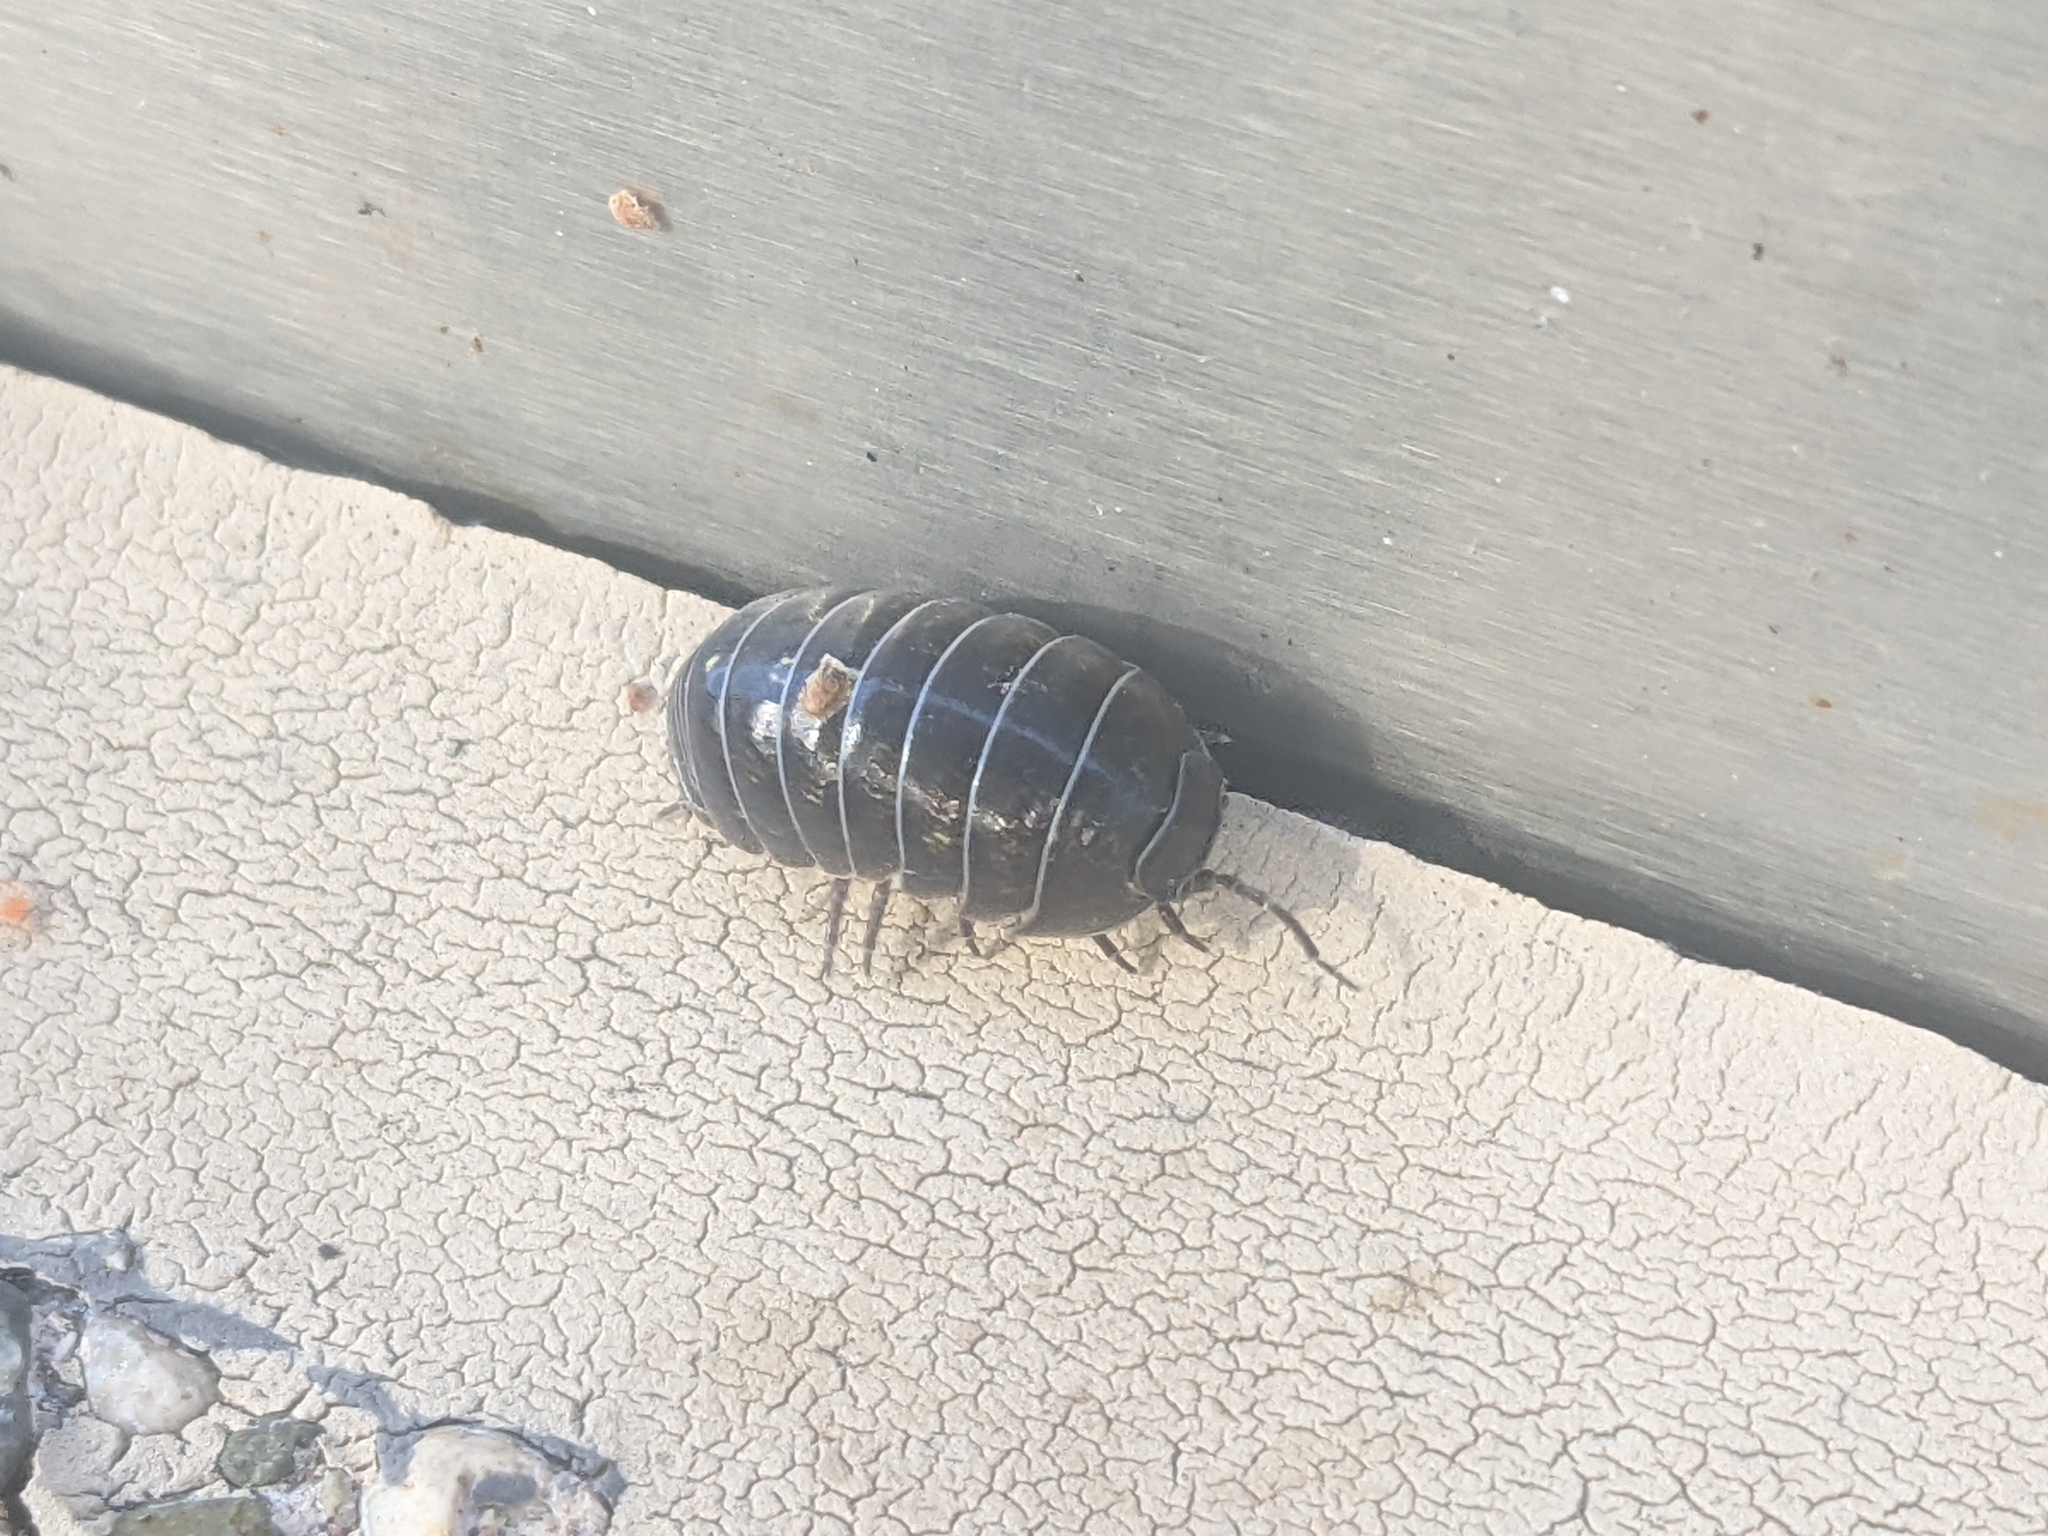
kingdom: Animalia
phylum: Arthropoda
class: Malacostraca
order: Isopoda
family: Armadillidiidae
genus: Armadillidium
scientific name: Armadillidium vulgare
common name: Common pill woodlouse
